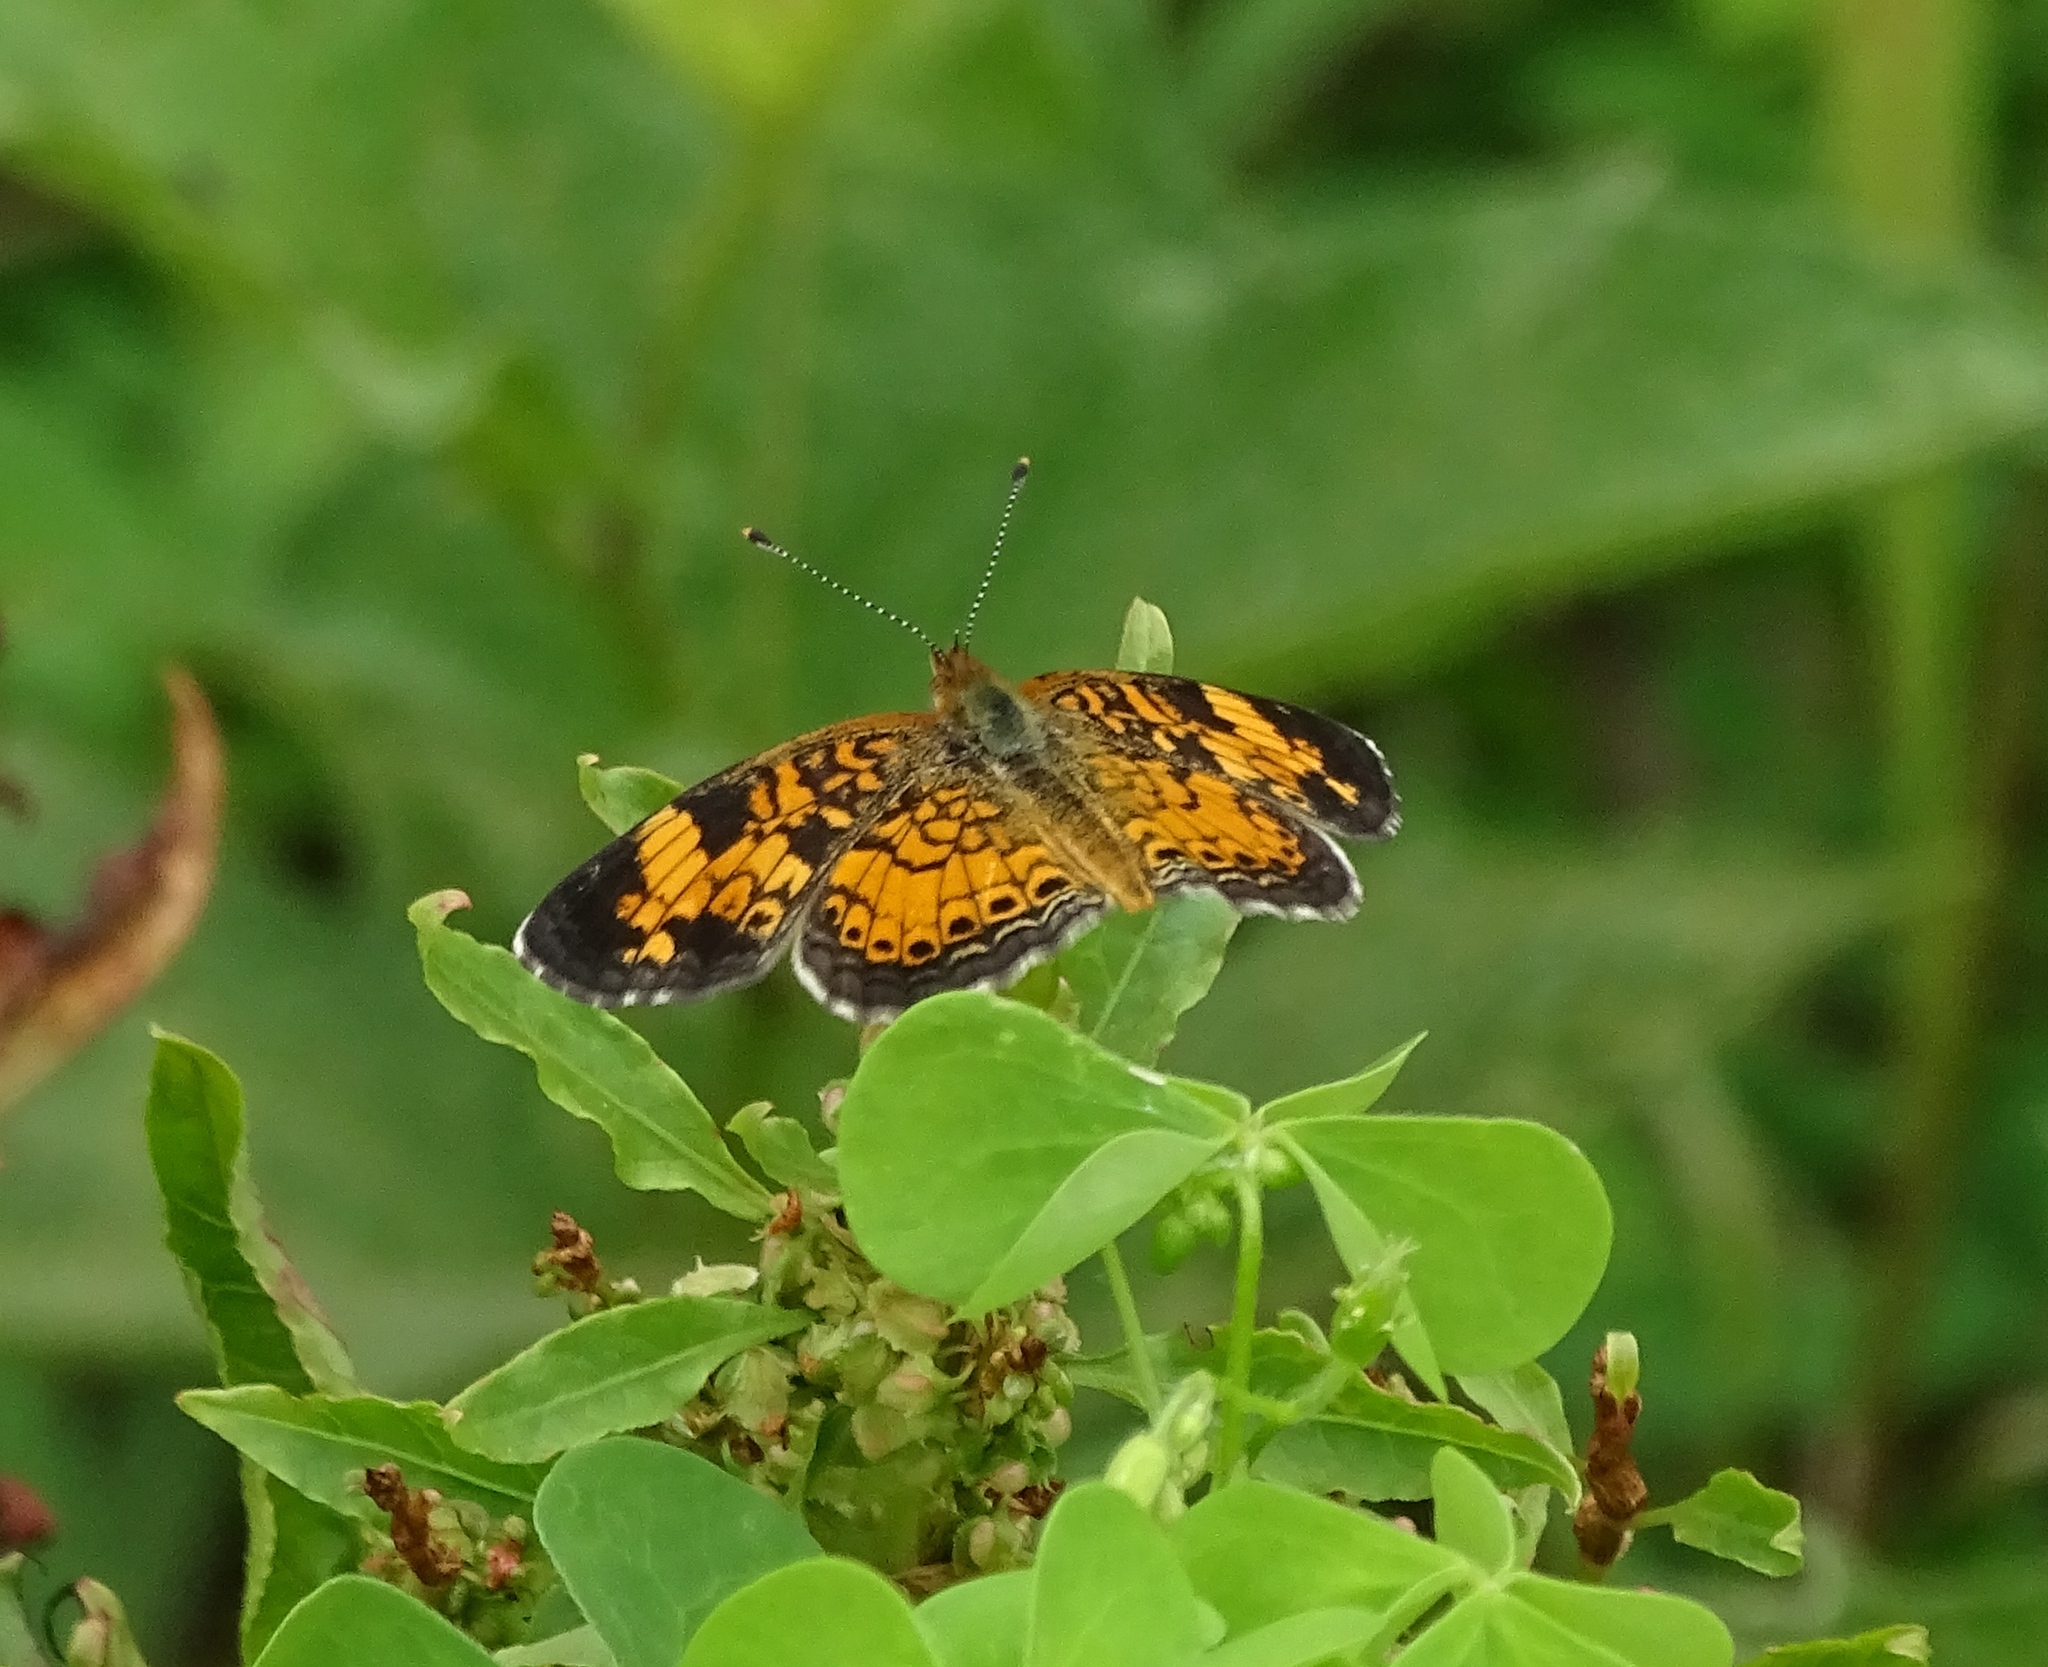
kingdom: Animalia
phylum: Arthropoda
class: Insecta
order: Lepidoptera
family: Nymphalidae
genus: Phyciodes
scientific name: Phyciodes tharos
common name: Pearl crescent
